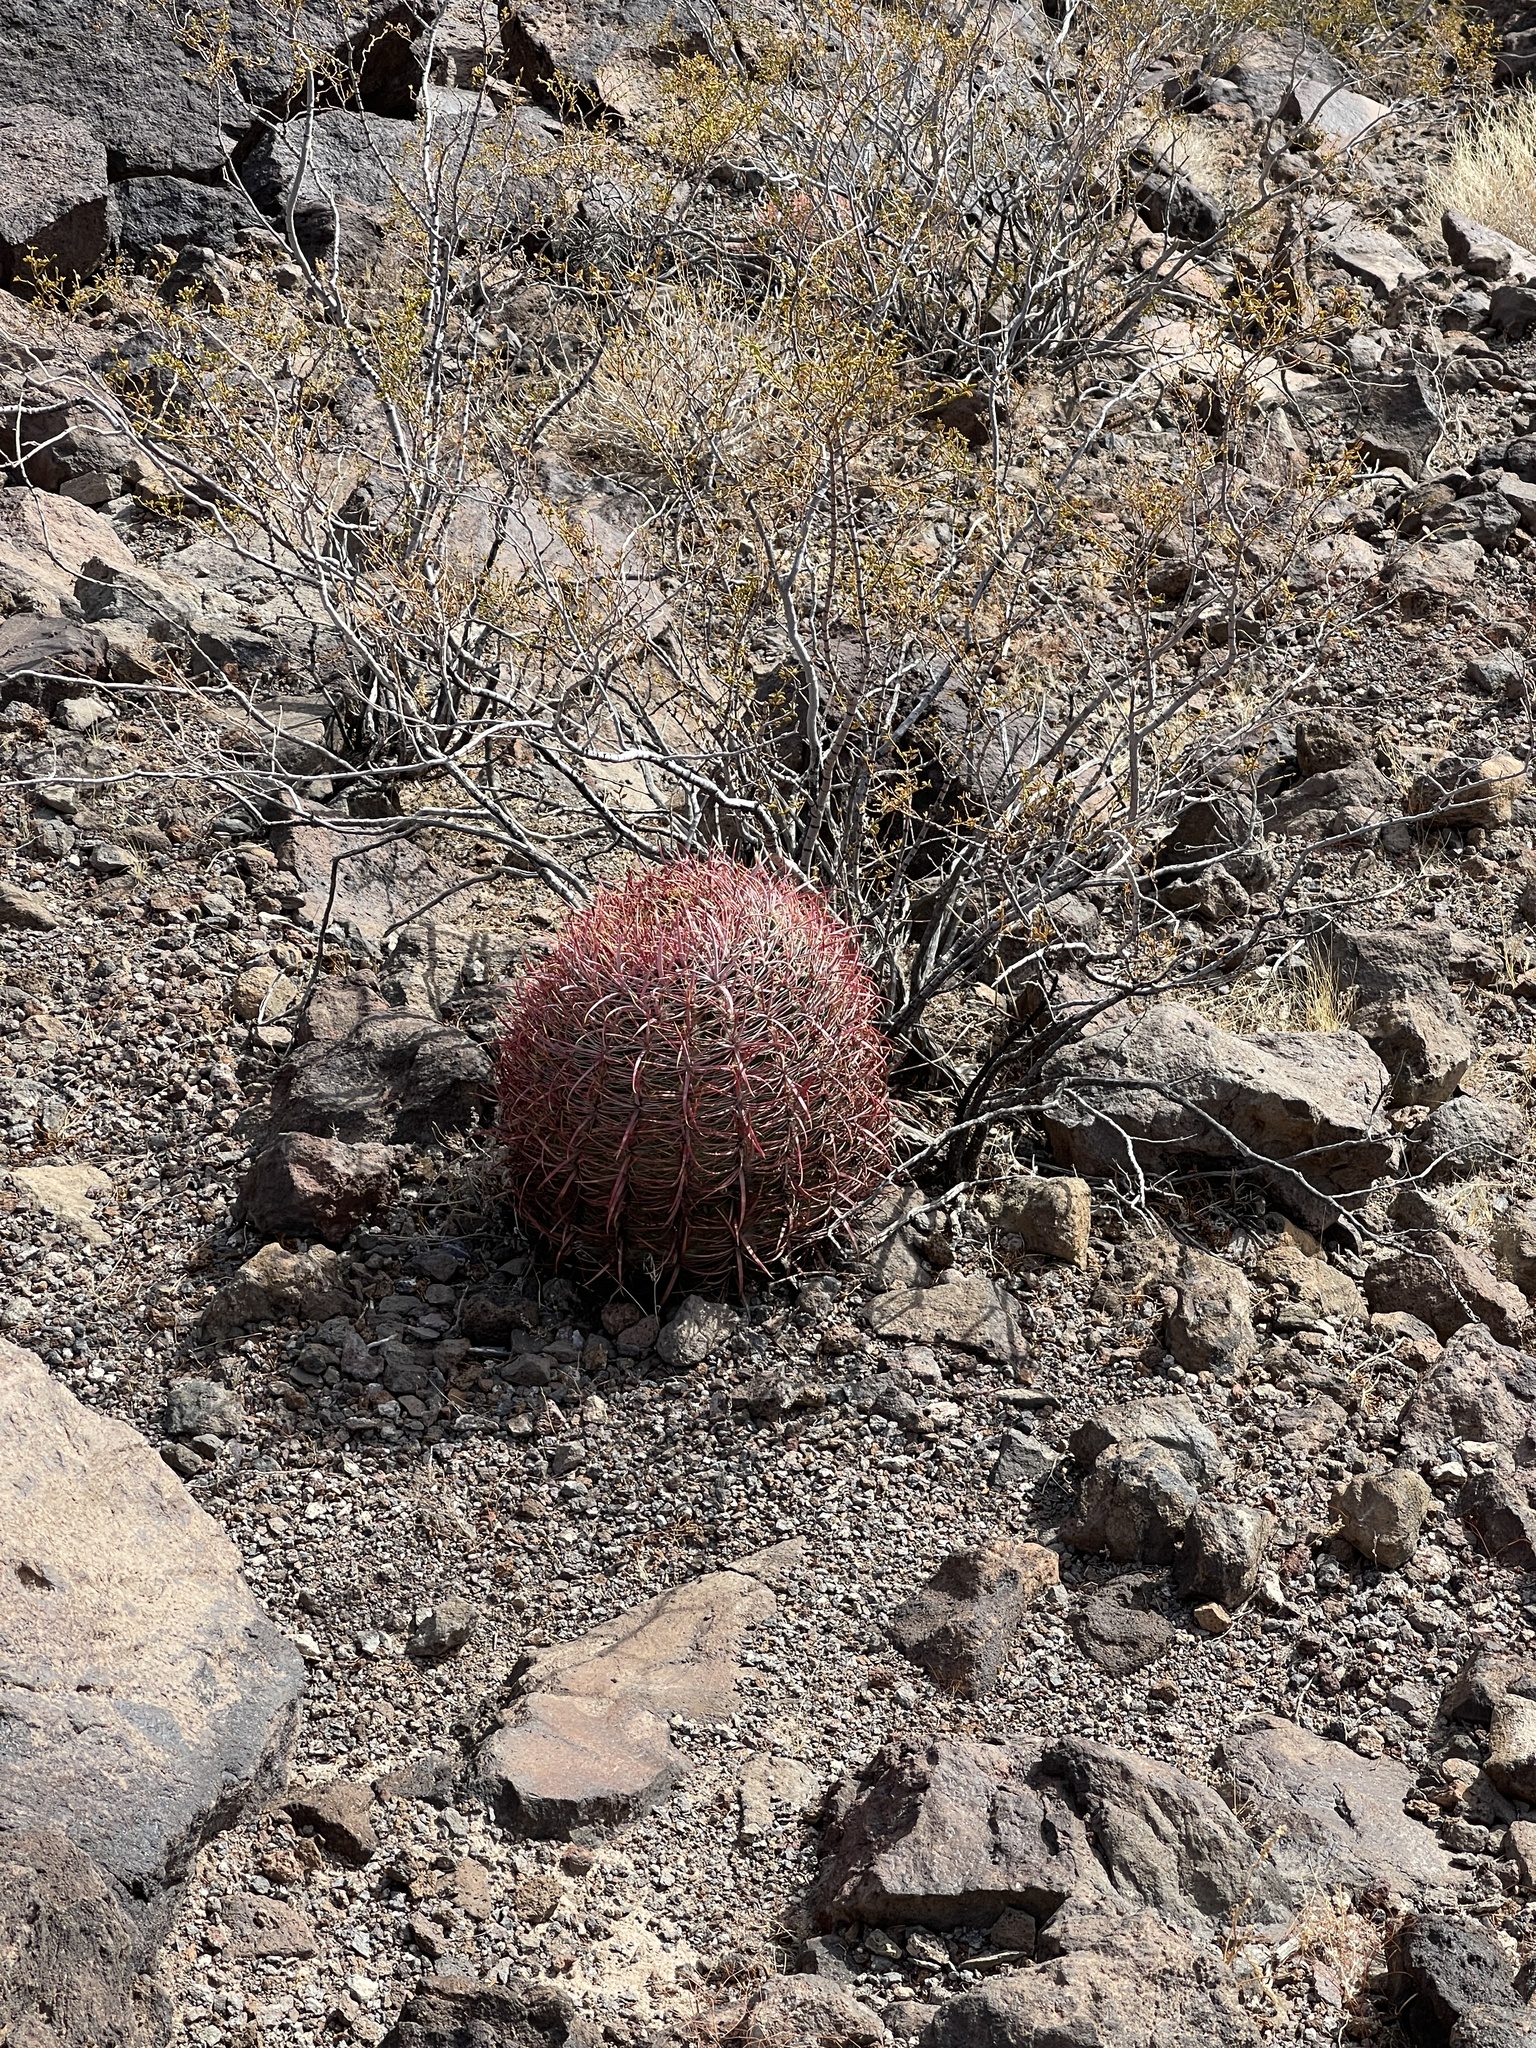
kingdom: Plantae
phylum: Tracheophyta
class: Magnoliopsida
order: Caryophyllales
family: Cactaceae
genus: Ferocactus
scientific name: Ferocactus cylindraceus
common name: California barrel cactus
